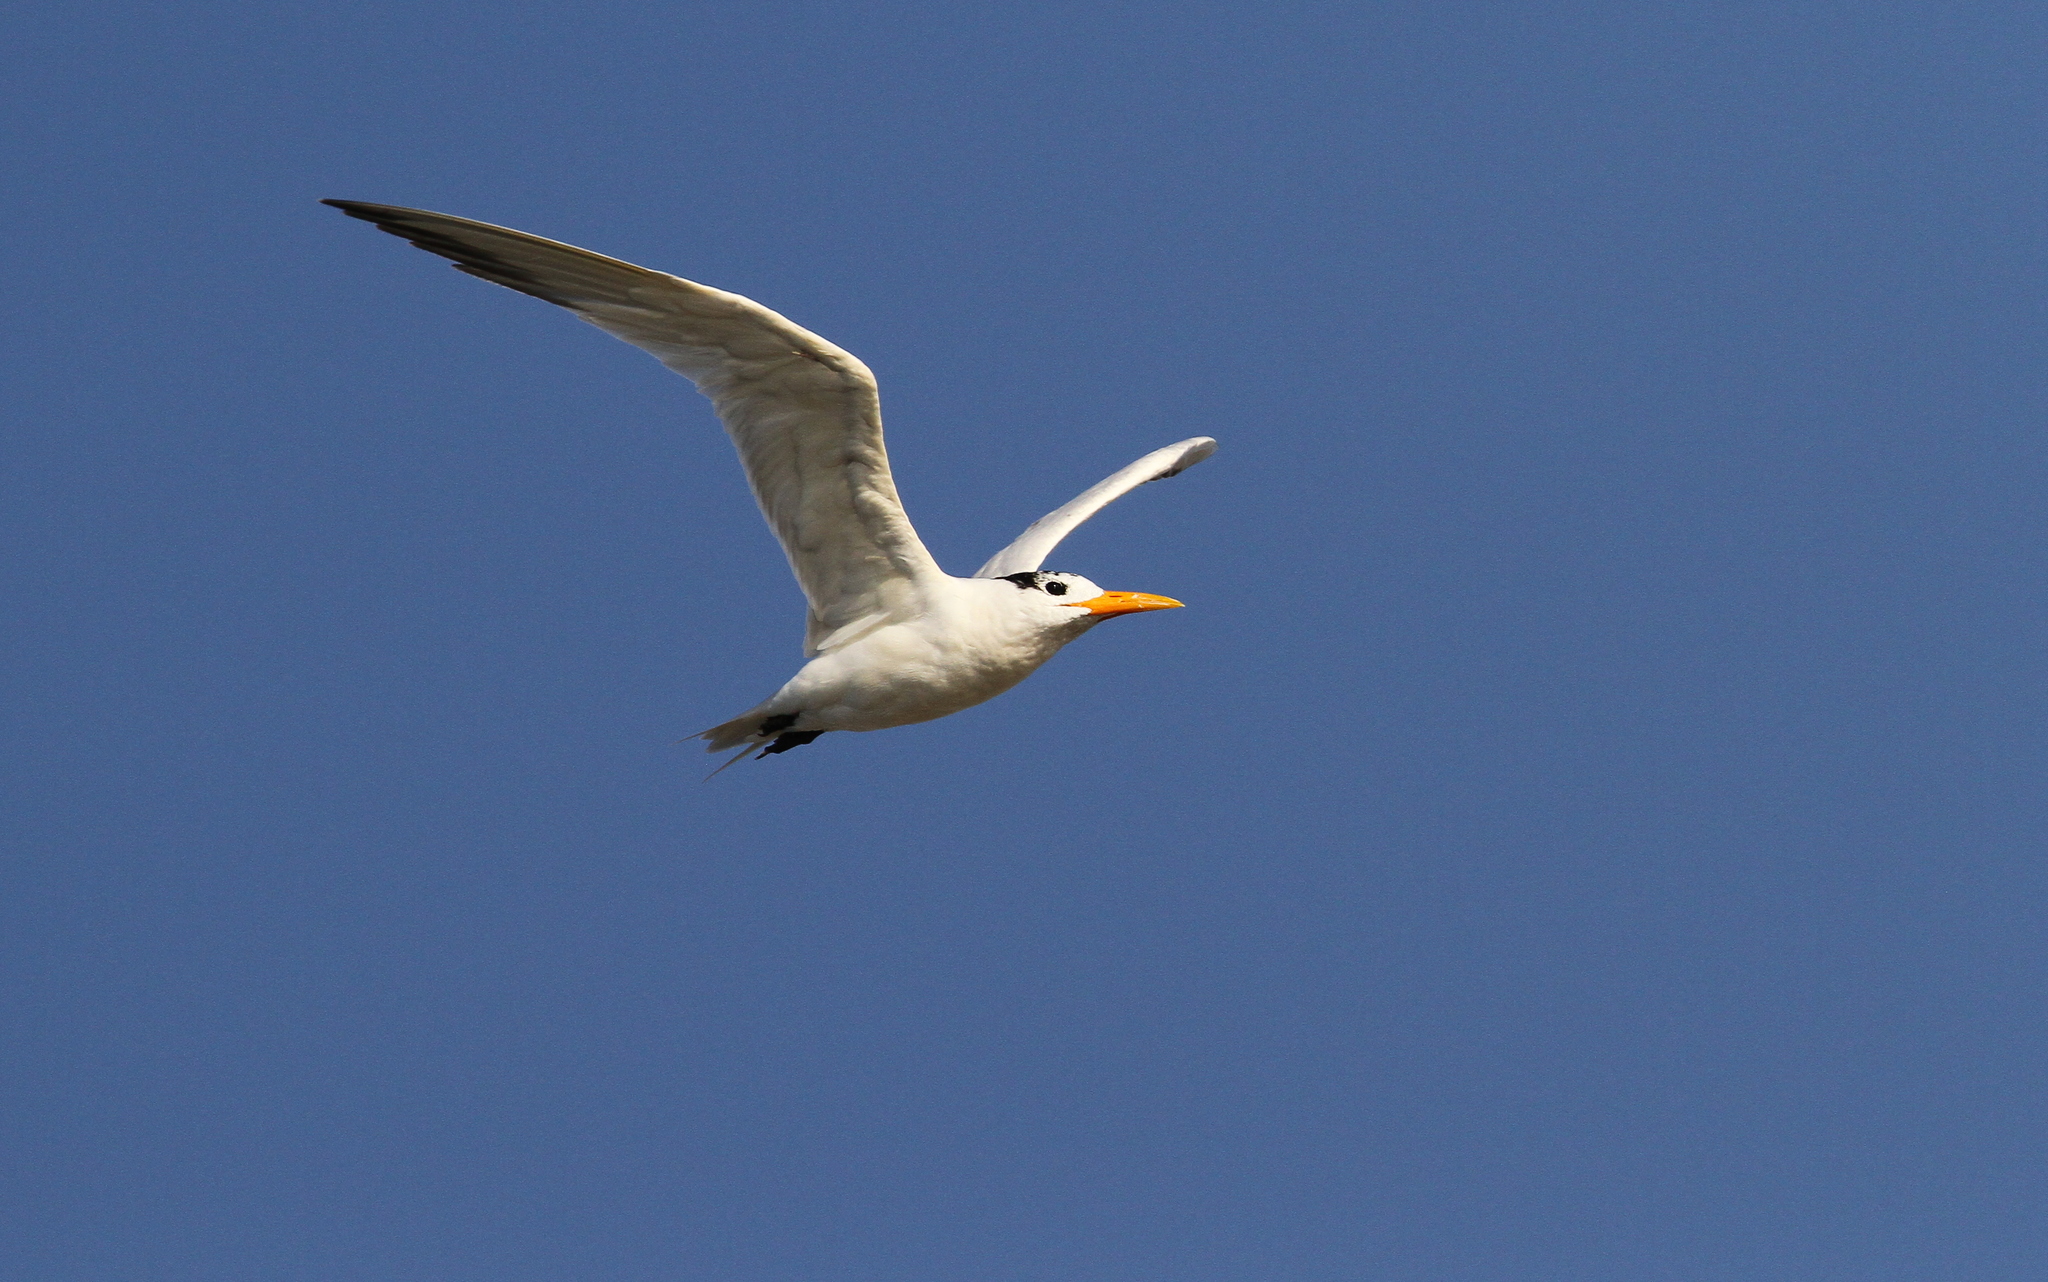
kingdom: Animalia
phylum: Chordata
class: Aves
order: Charadriiformes
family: Laridae
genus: Thalasseus
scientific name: Thalasseus albididorsalis
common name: West african crested tern
